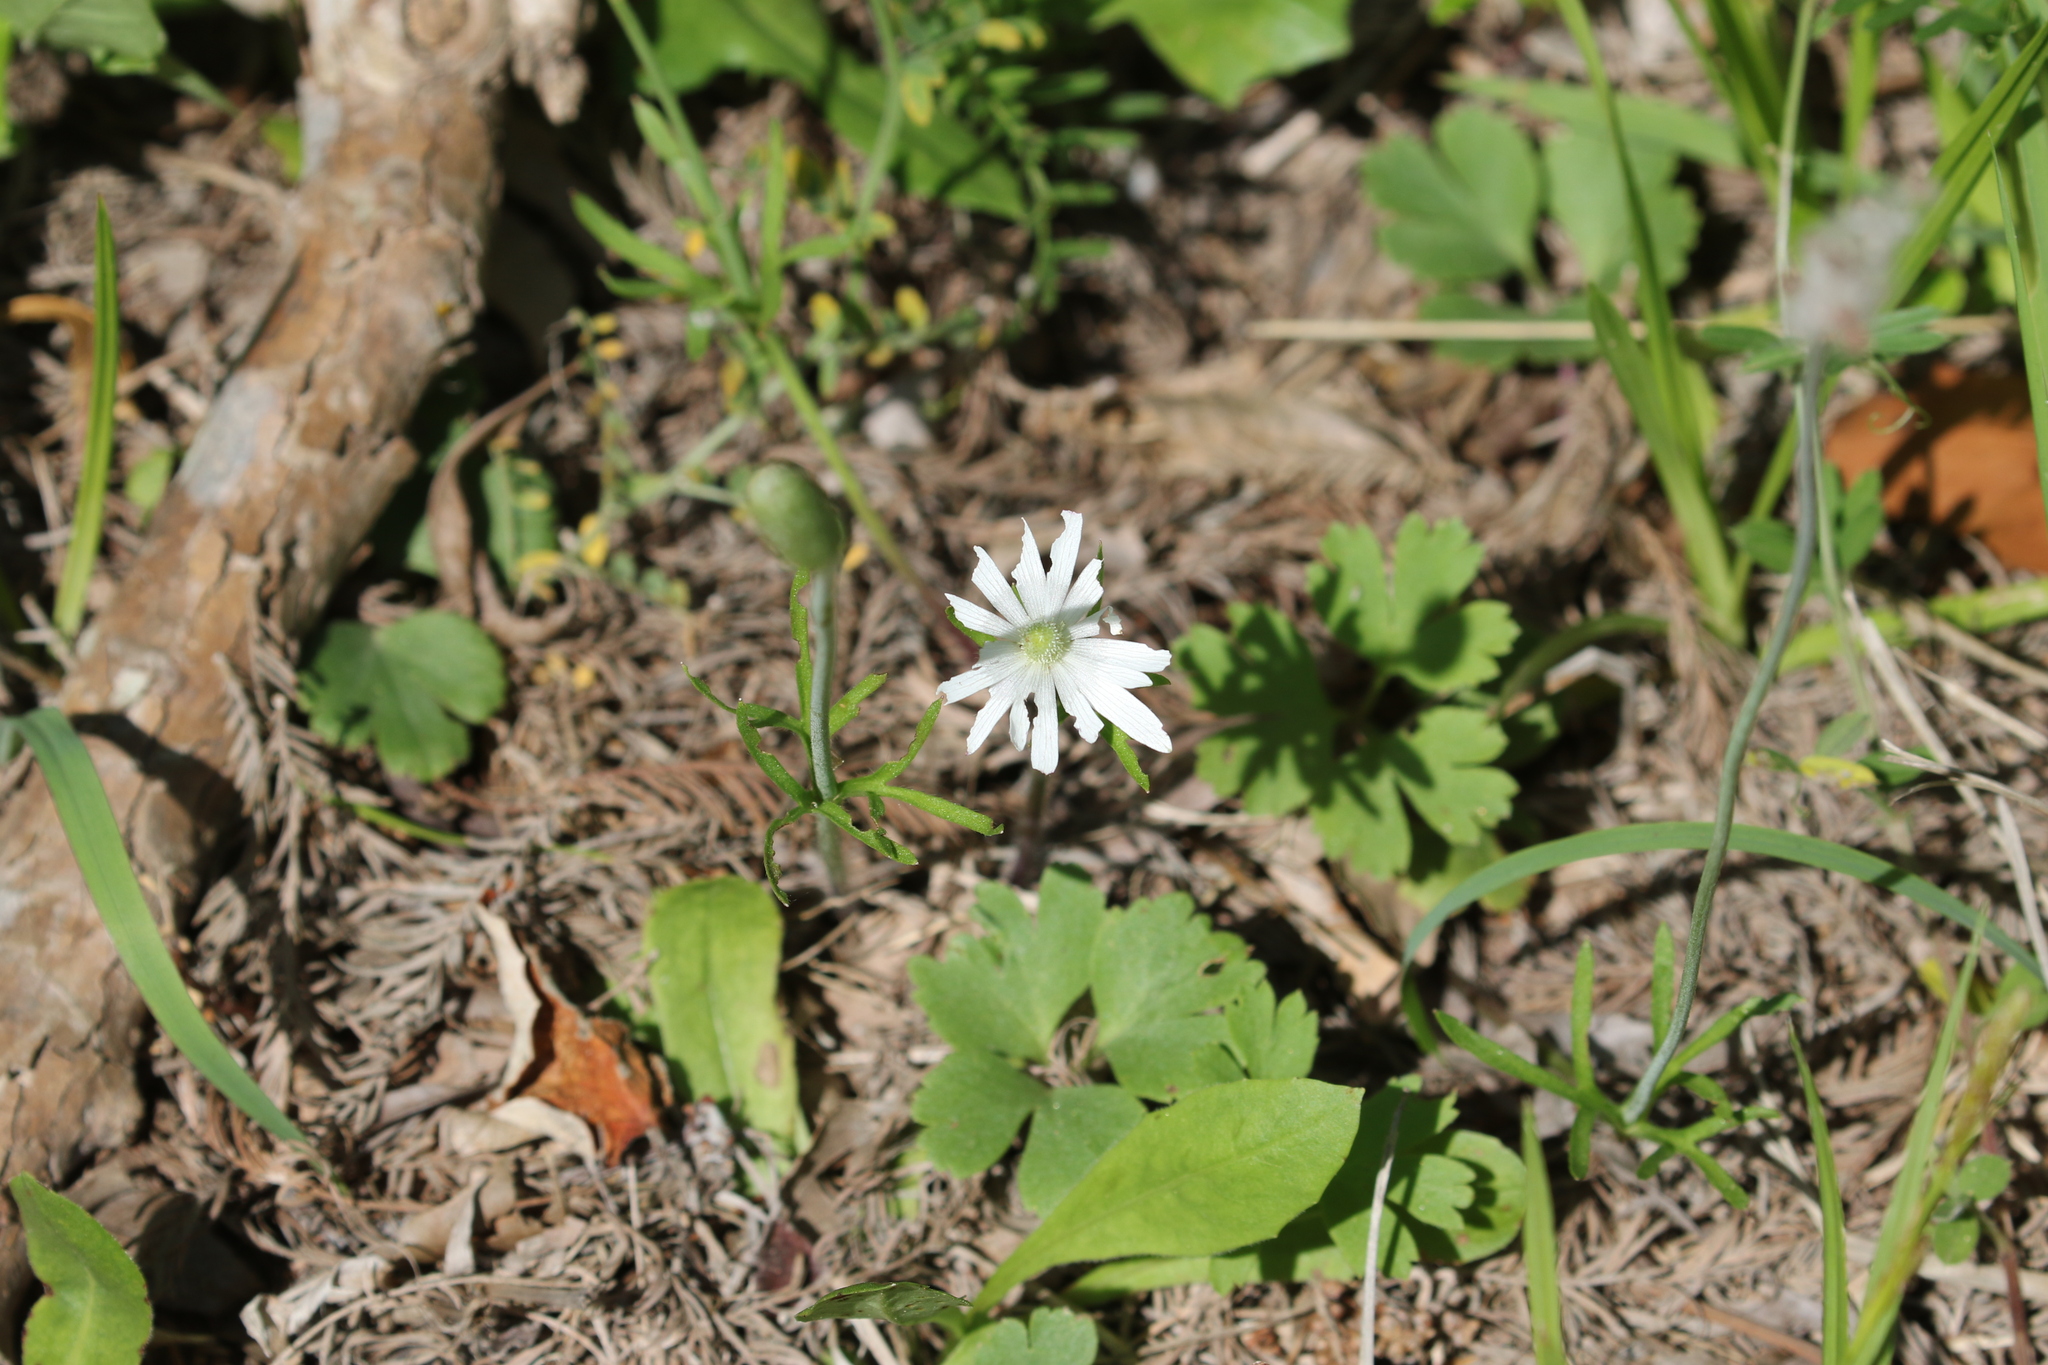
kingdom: Plantae
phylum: Tracheophyta
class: Magnoliopsida
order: Ranunculales
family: Ranunculaceae
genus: Anemone
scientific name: Anemone berlandieri
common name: Ten-petal anemone
